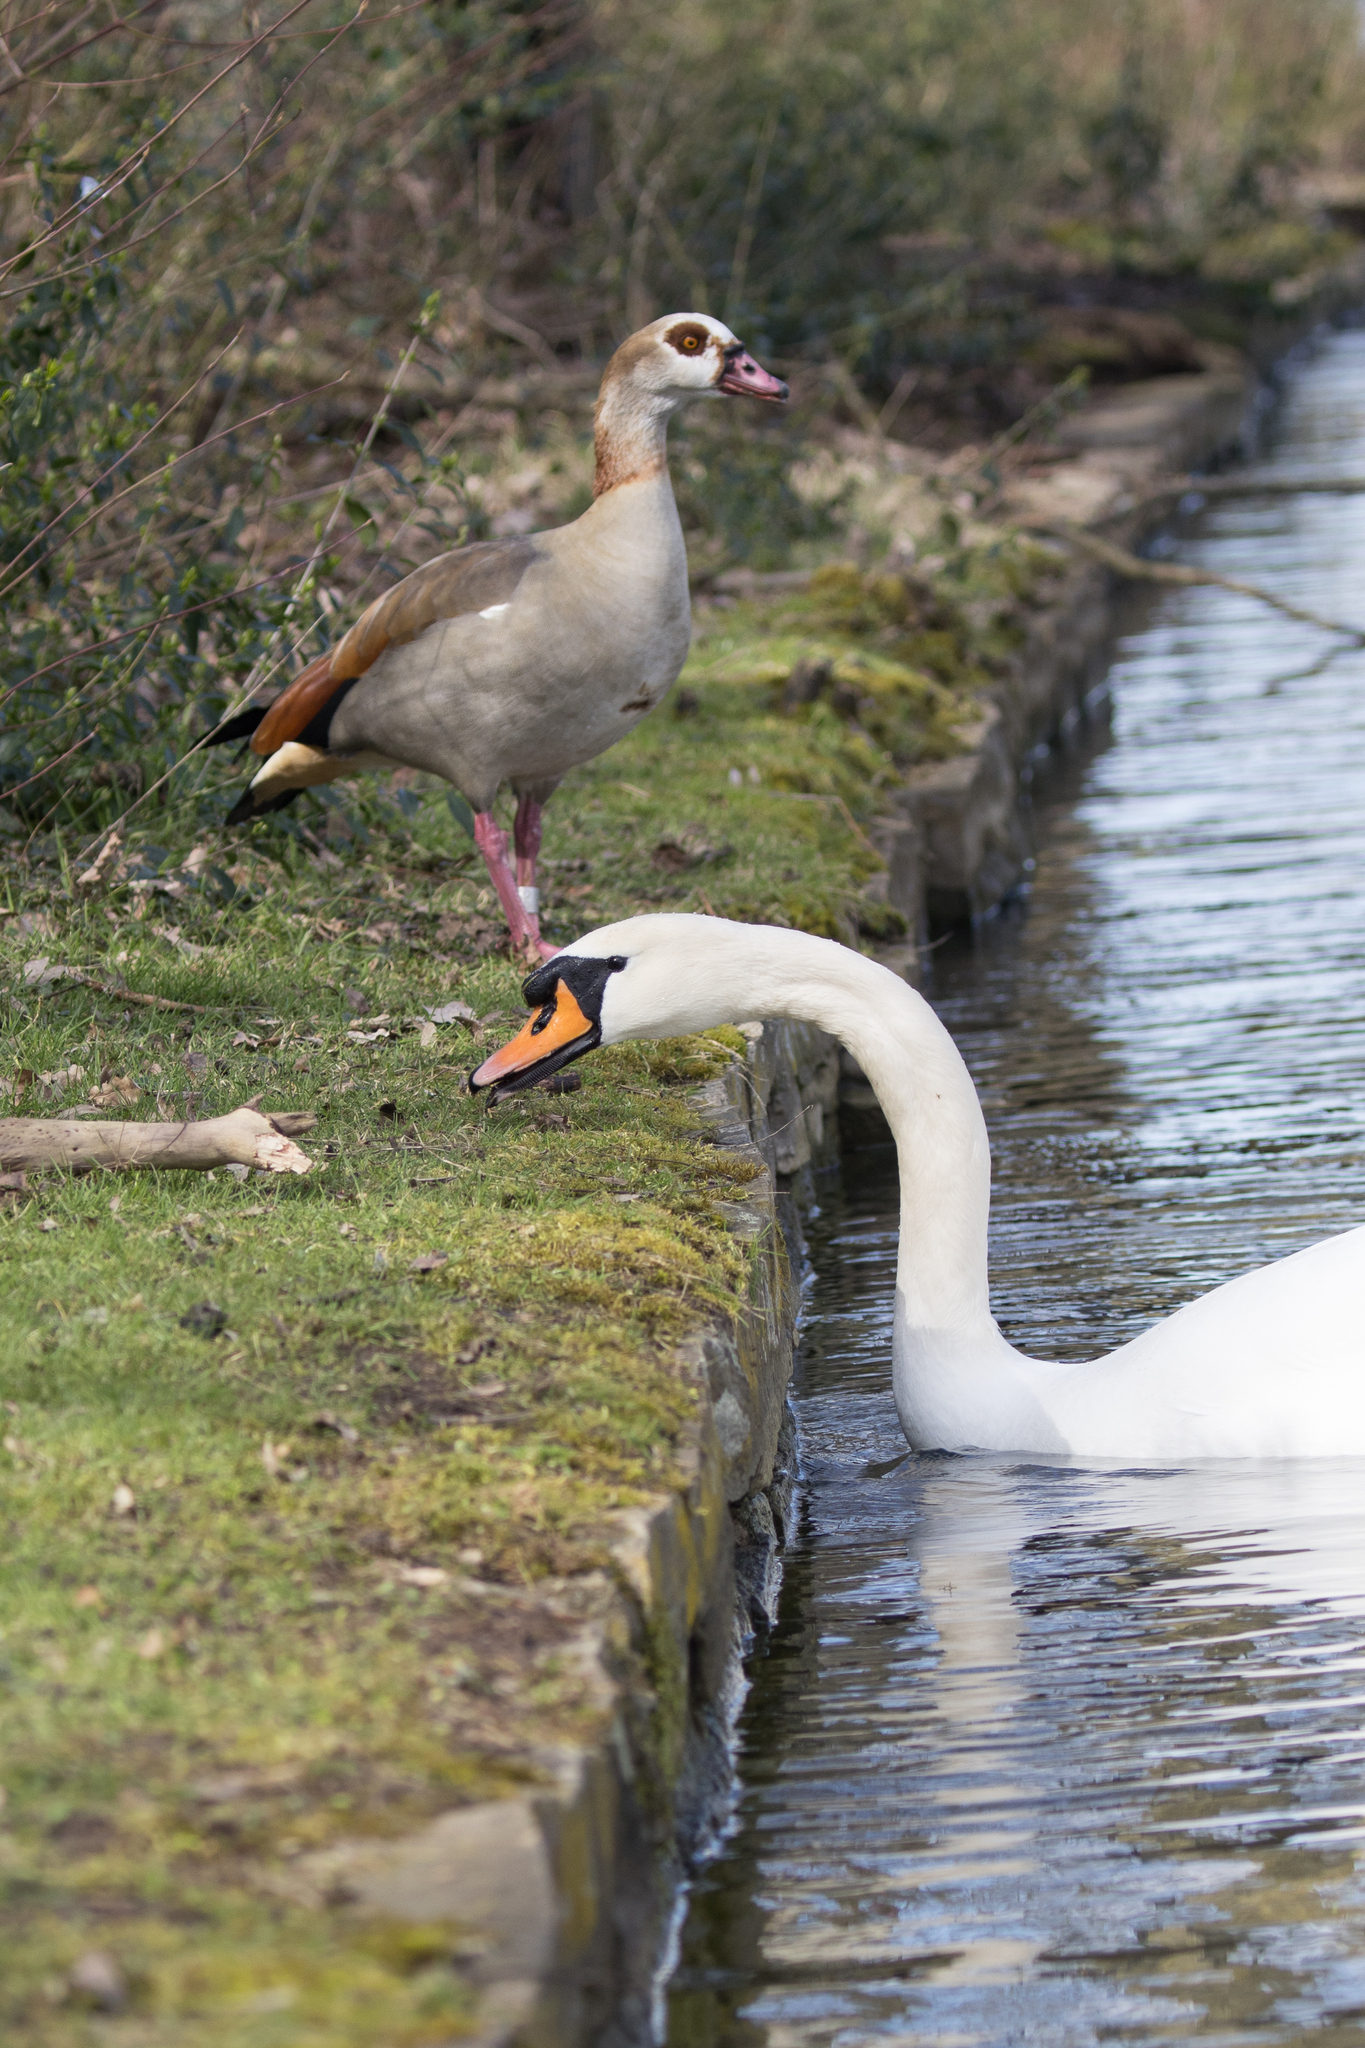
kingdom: Animalia
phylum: Chordata
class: Aves
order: Anseriformes
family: Anatidae
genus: Cygnus
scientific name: Cygnus olor
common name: Mute swan
